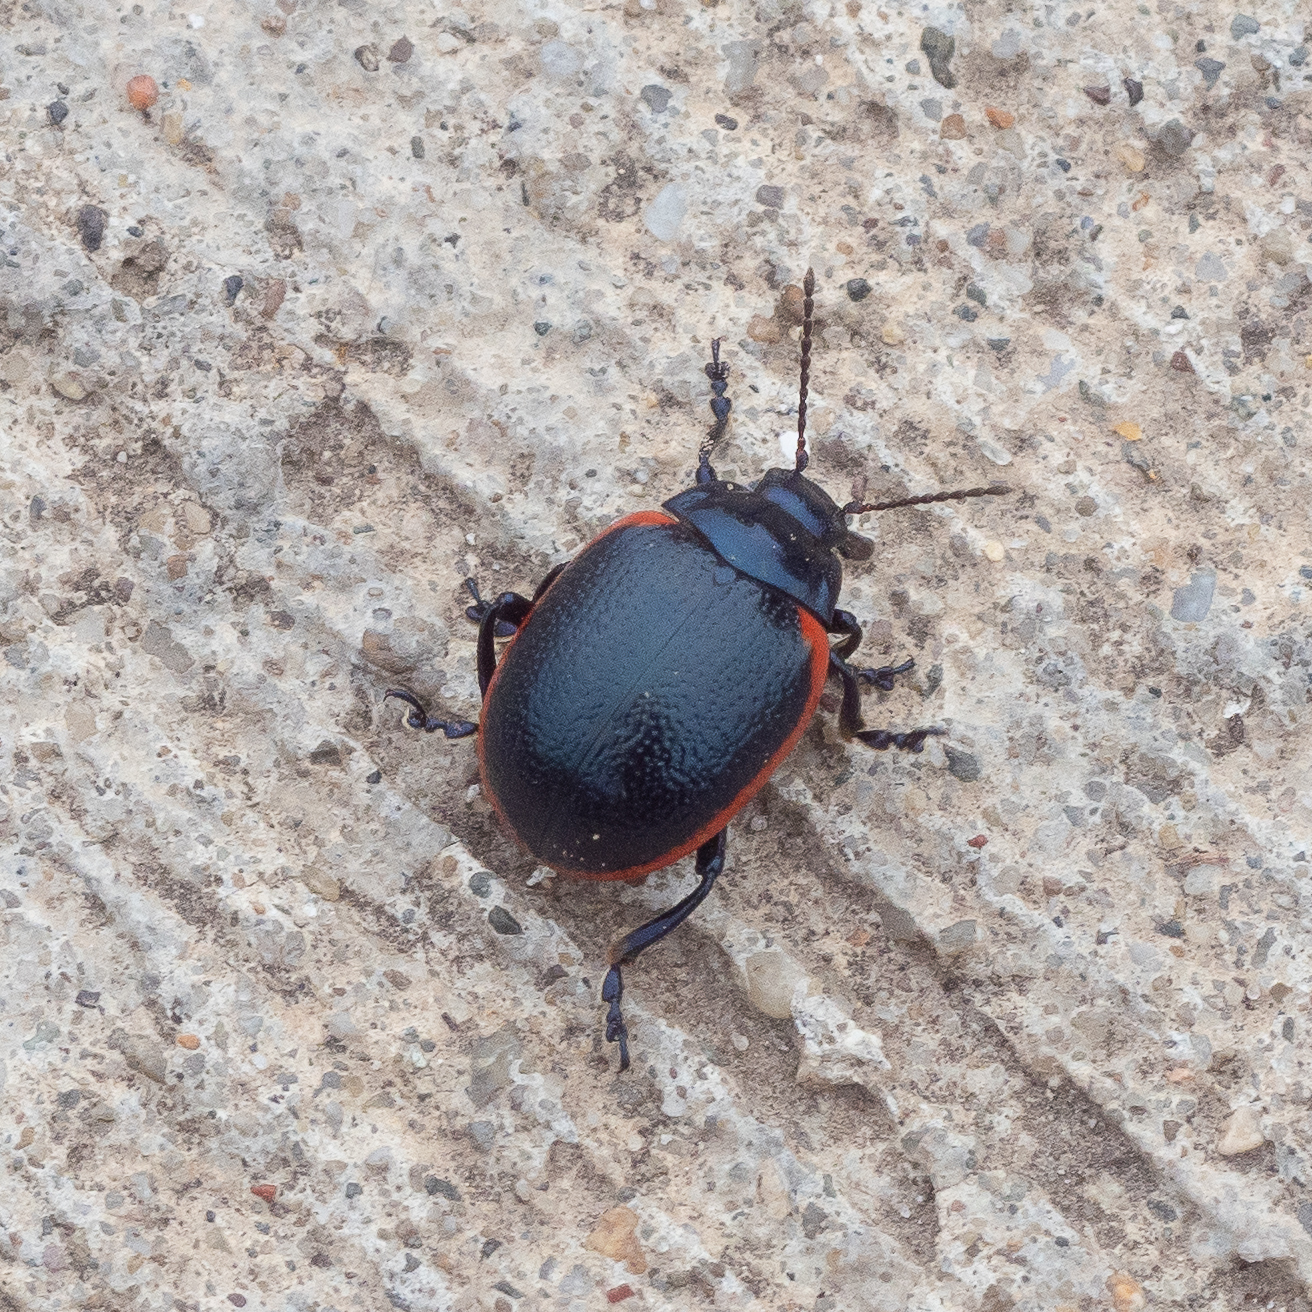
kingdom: Animalia
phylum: Arthropoda
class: Insecta
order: Coleoptera
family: Chrysomelidae
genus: Chrysolina
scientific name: Chrysolina rossia
